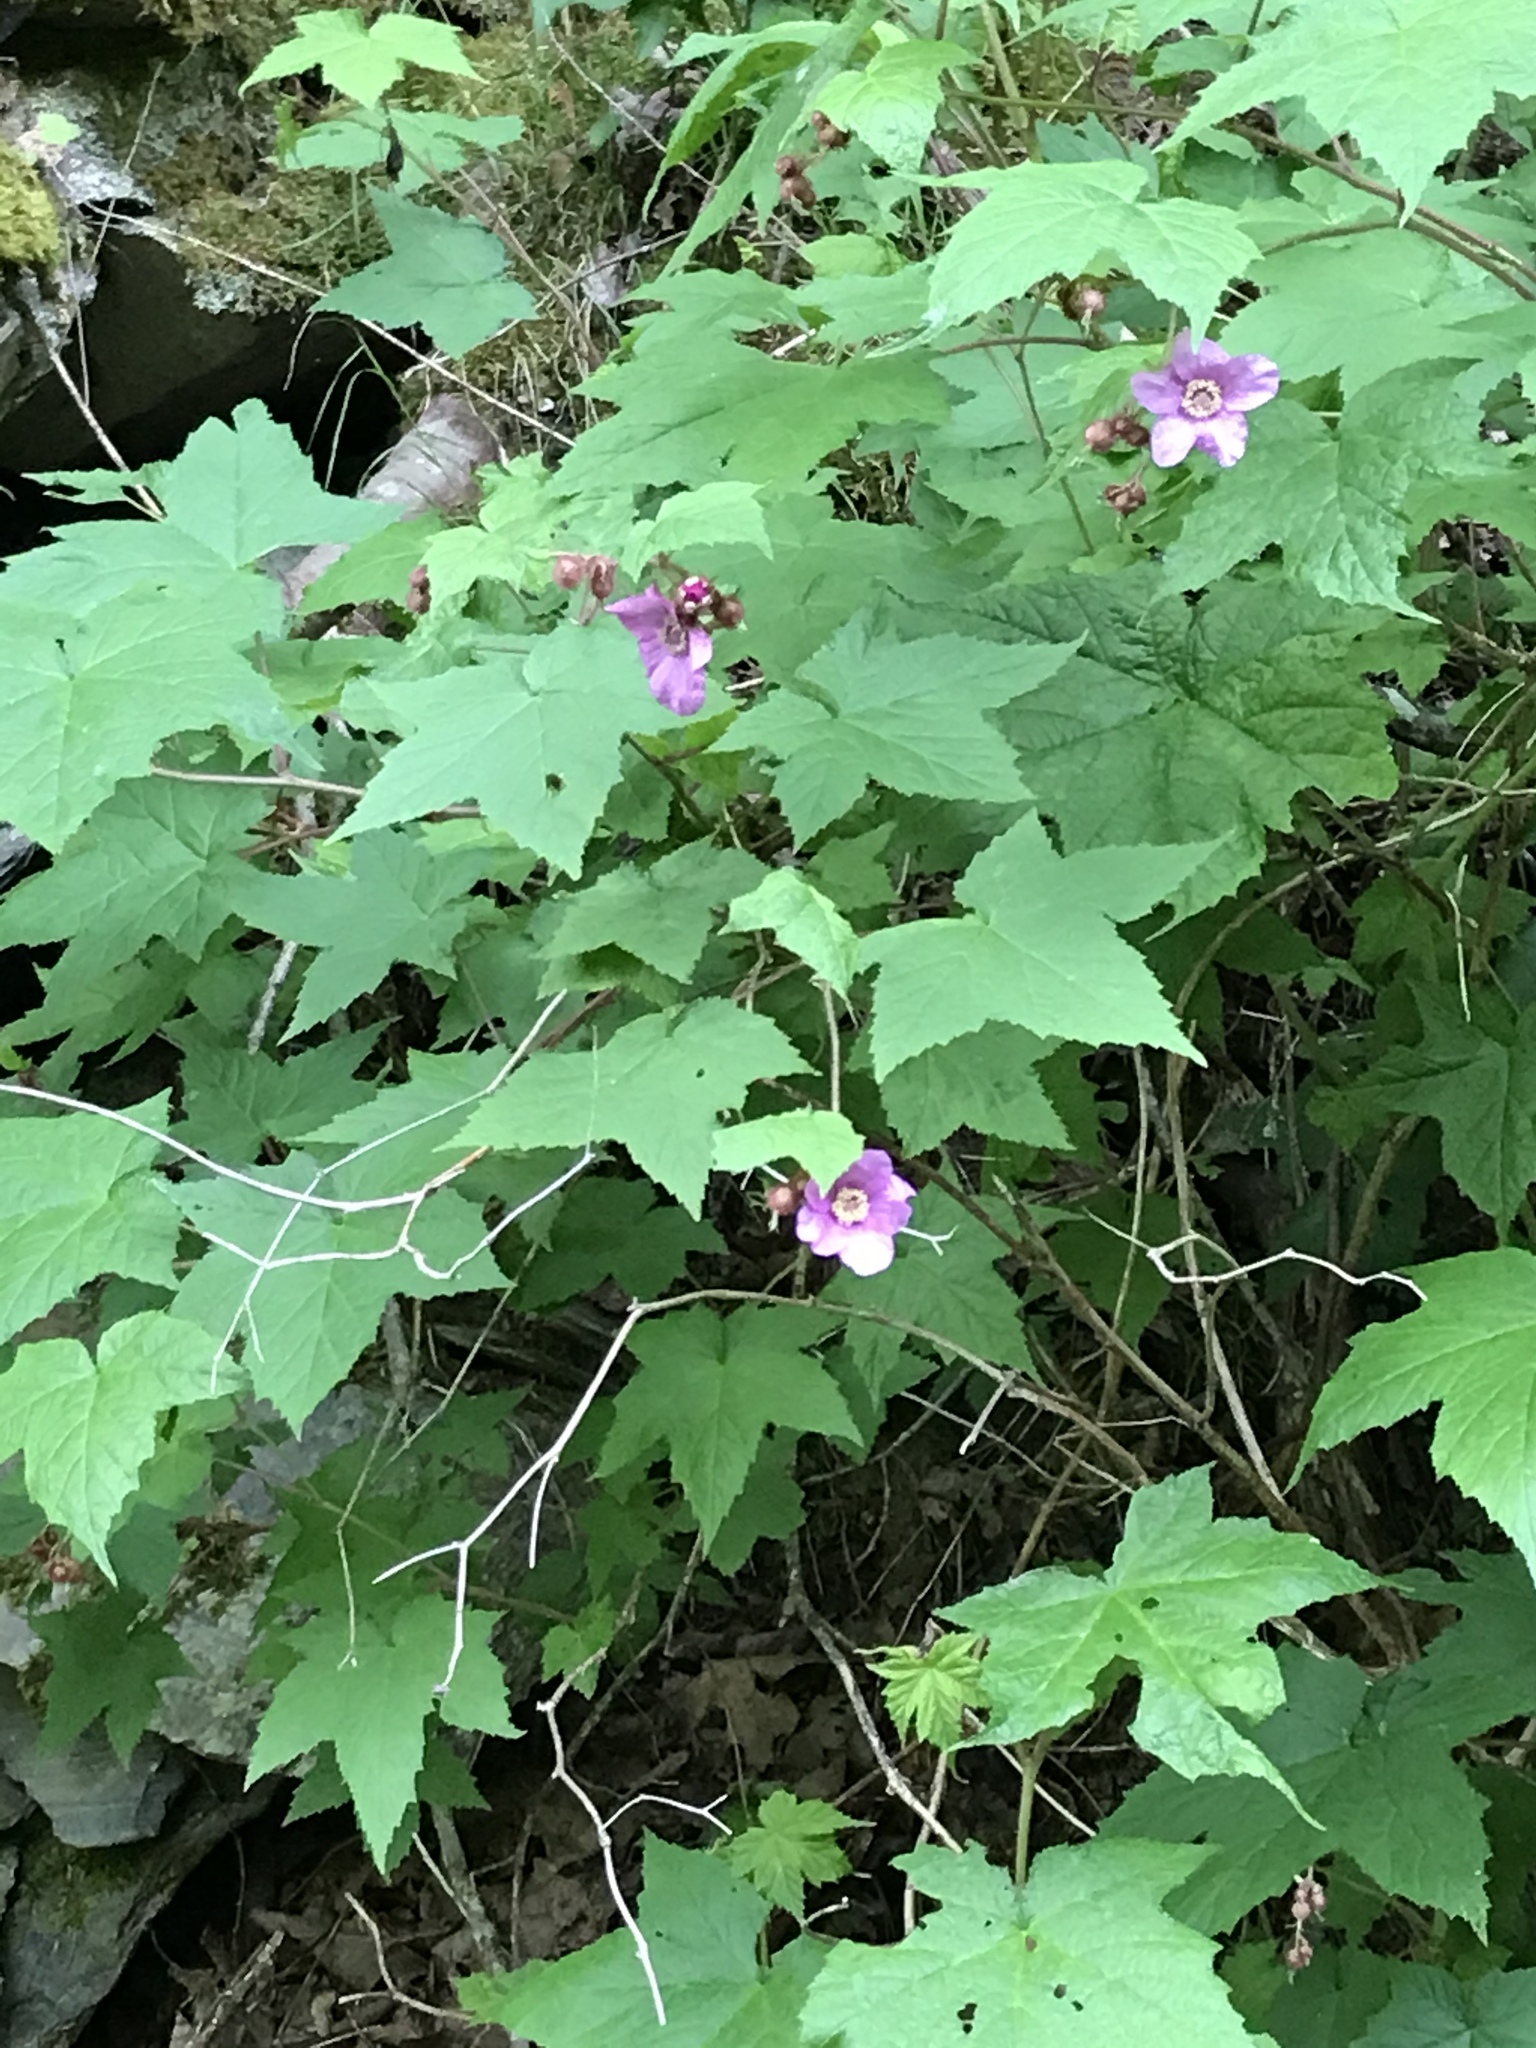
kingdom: Plantae
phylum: Tracheophyta
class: Magnoliopsida
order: Rosales
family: Rosaceae
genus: Rubus
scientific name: Rubus odoratus
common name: Purple-flowered raspberry
